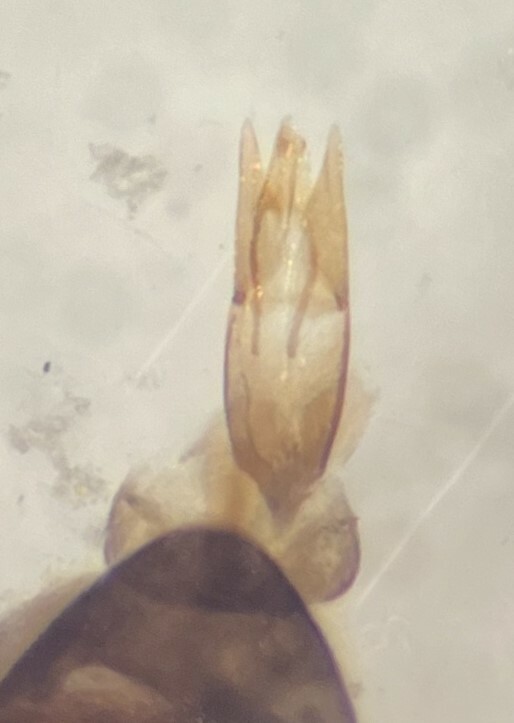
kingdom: Animalia
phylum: Arthropoda
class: Insecta
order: Coleoptera
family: Helophoridae
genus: Helophorus
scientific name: Helophorus linearis
